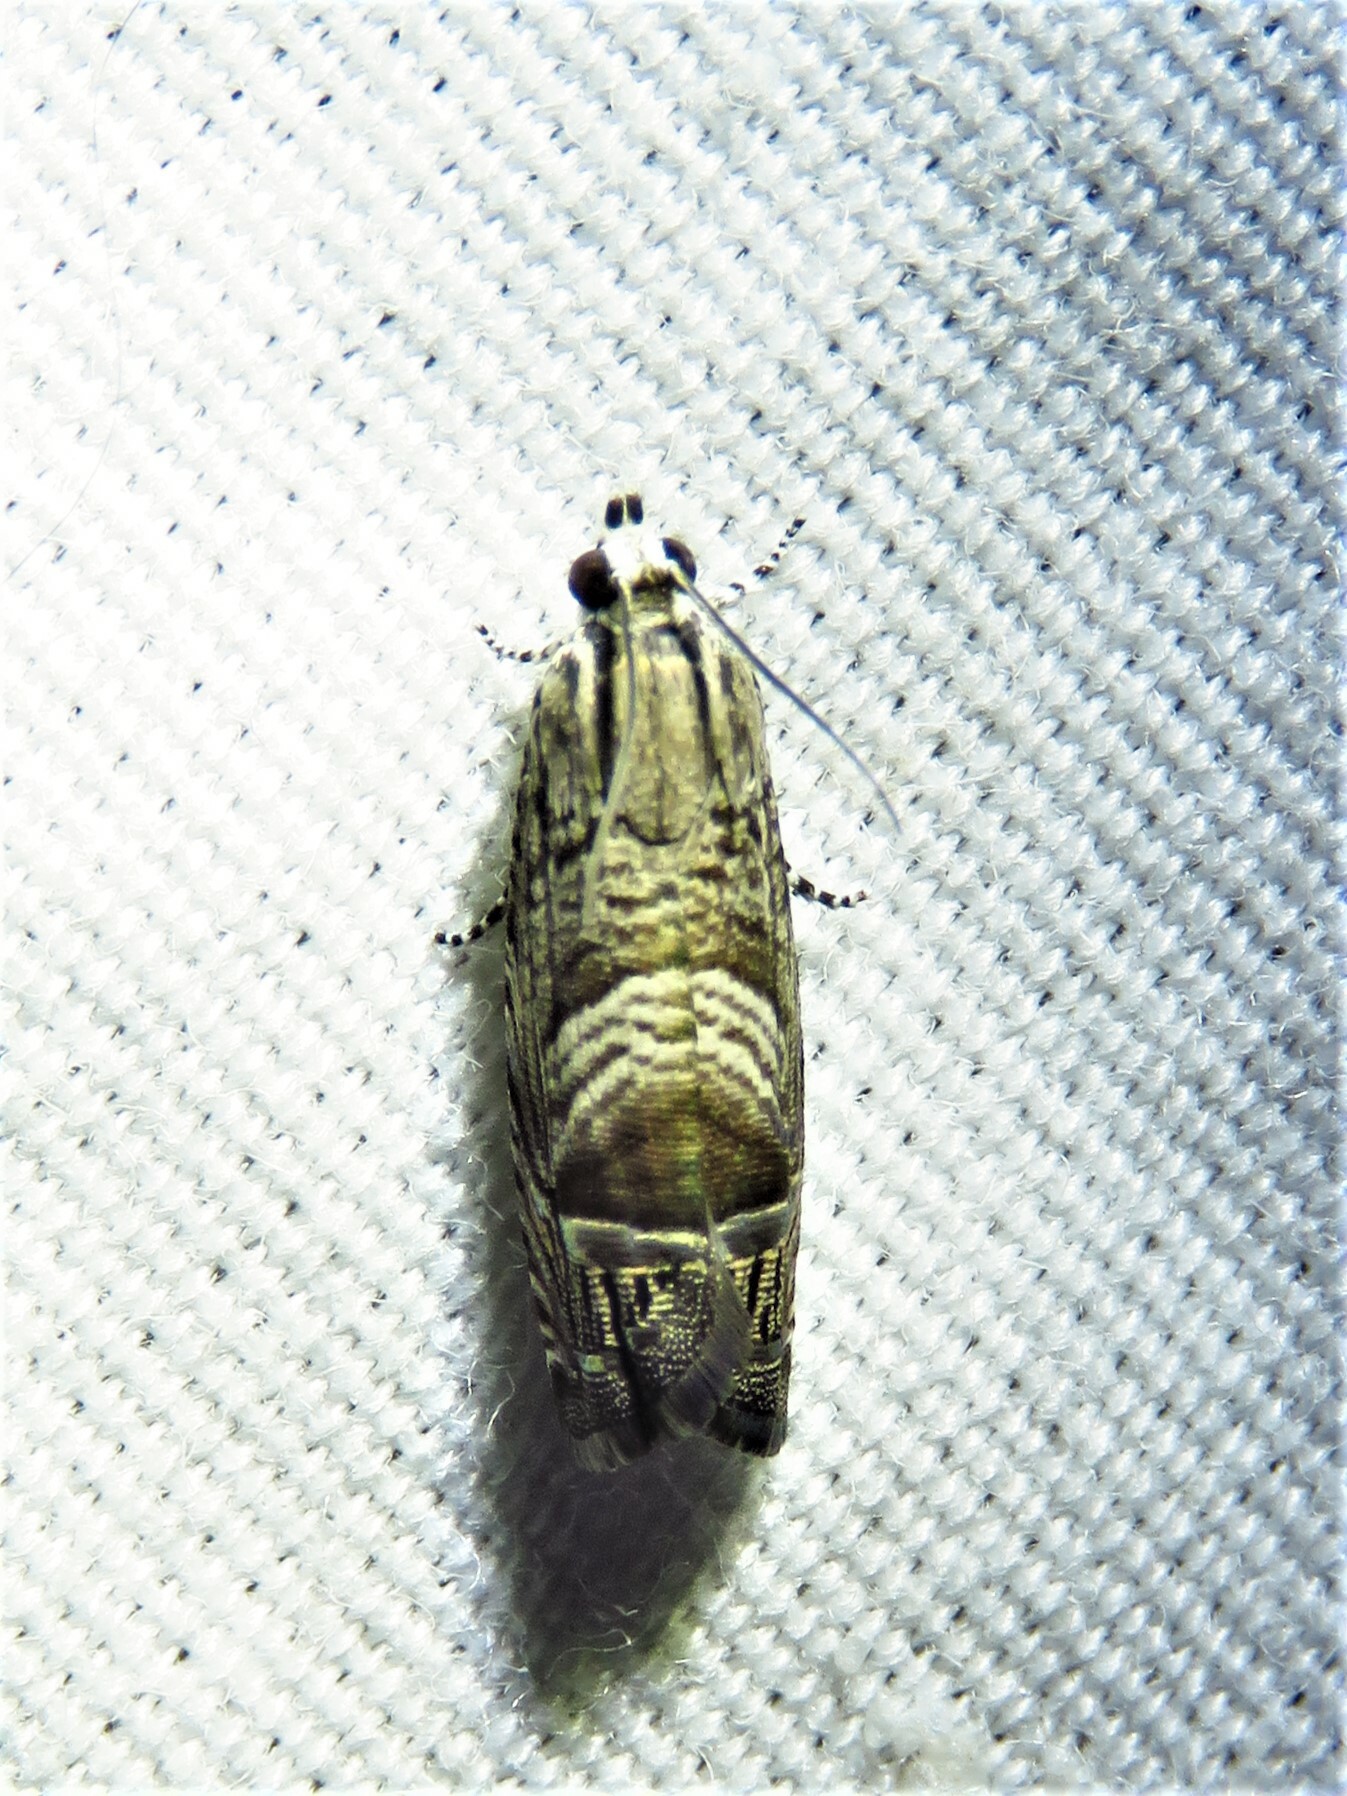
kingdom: Animalia
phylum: Arthropoda
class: Insecta
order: Lepidoptera
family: Tortricidae
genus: Ofatulena
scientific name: Ofatulena duodecemstriata
